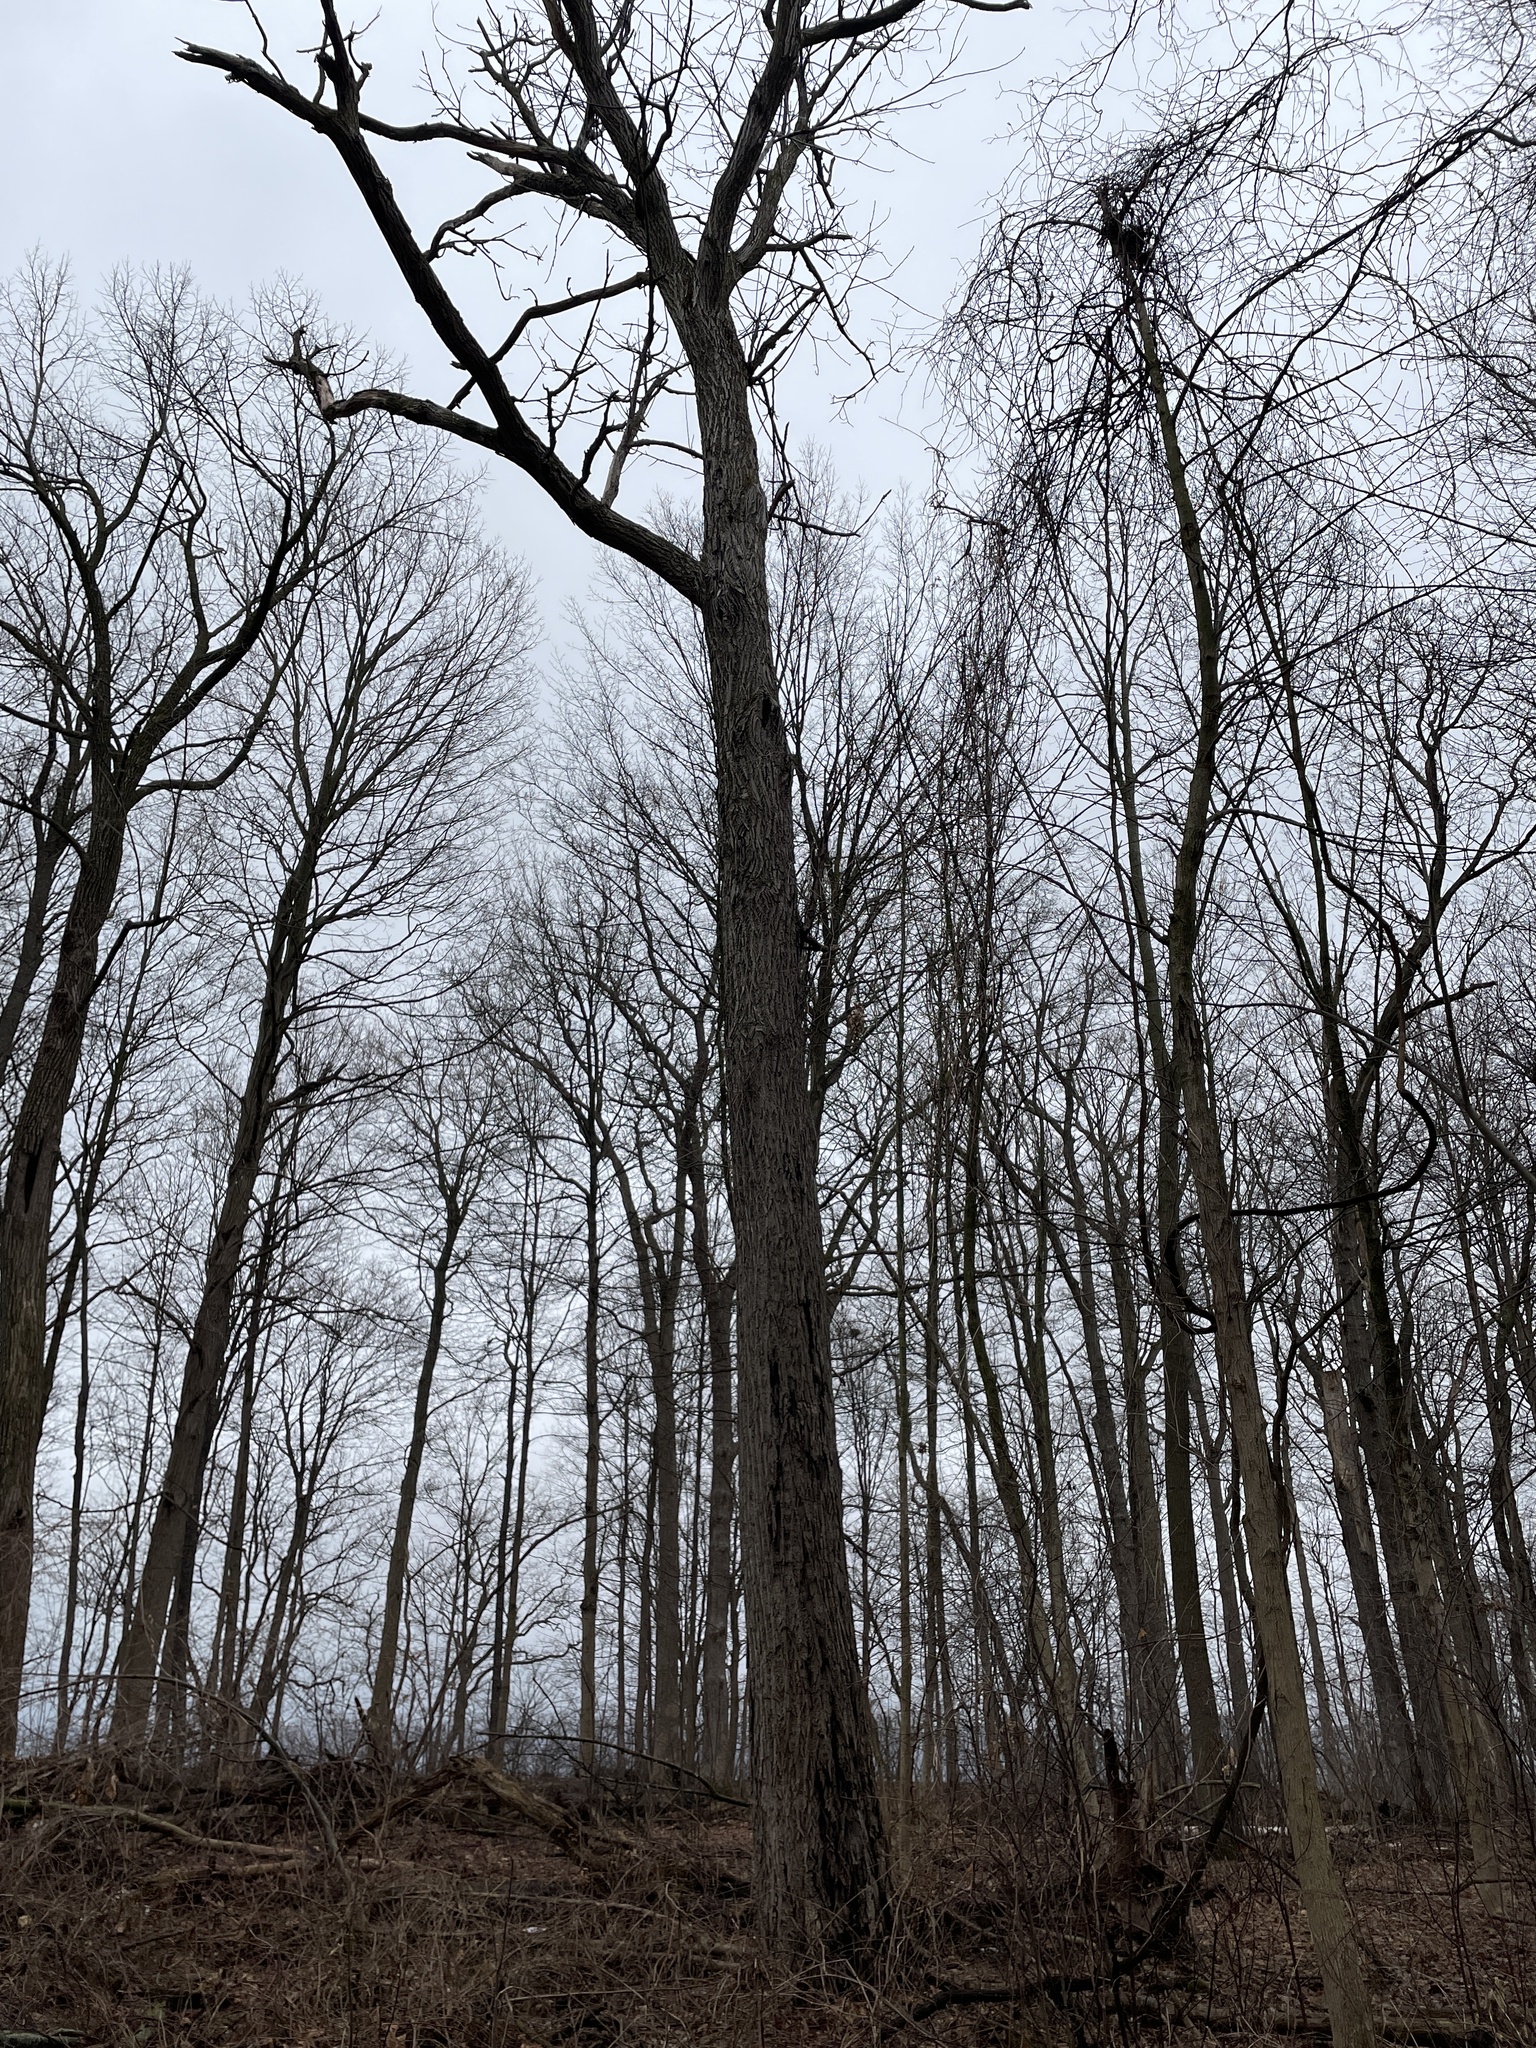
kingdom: Plantae
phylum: Tracheophyta
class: Magnoliopsida
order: Fagales
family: Juglandaceae
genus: Juglans
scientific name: Juglans cinerea
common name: Butternut
